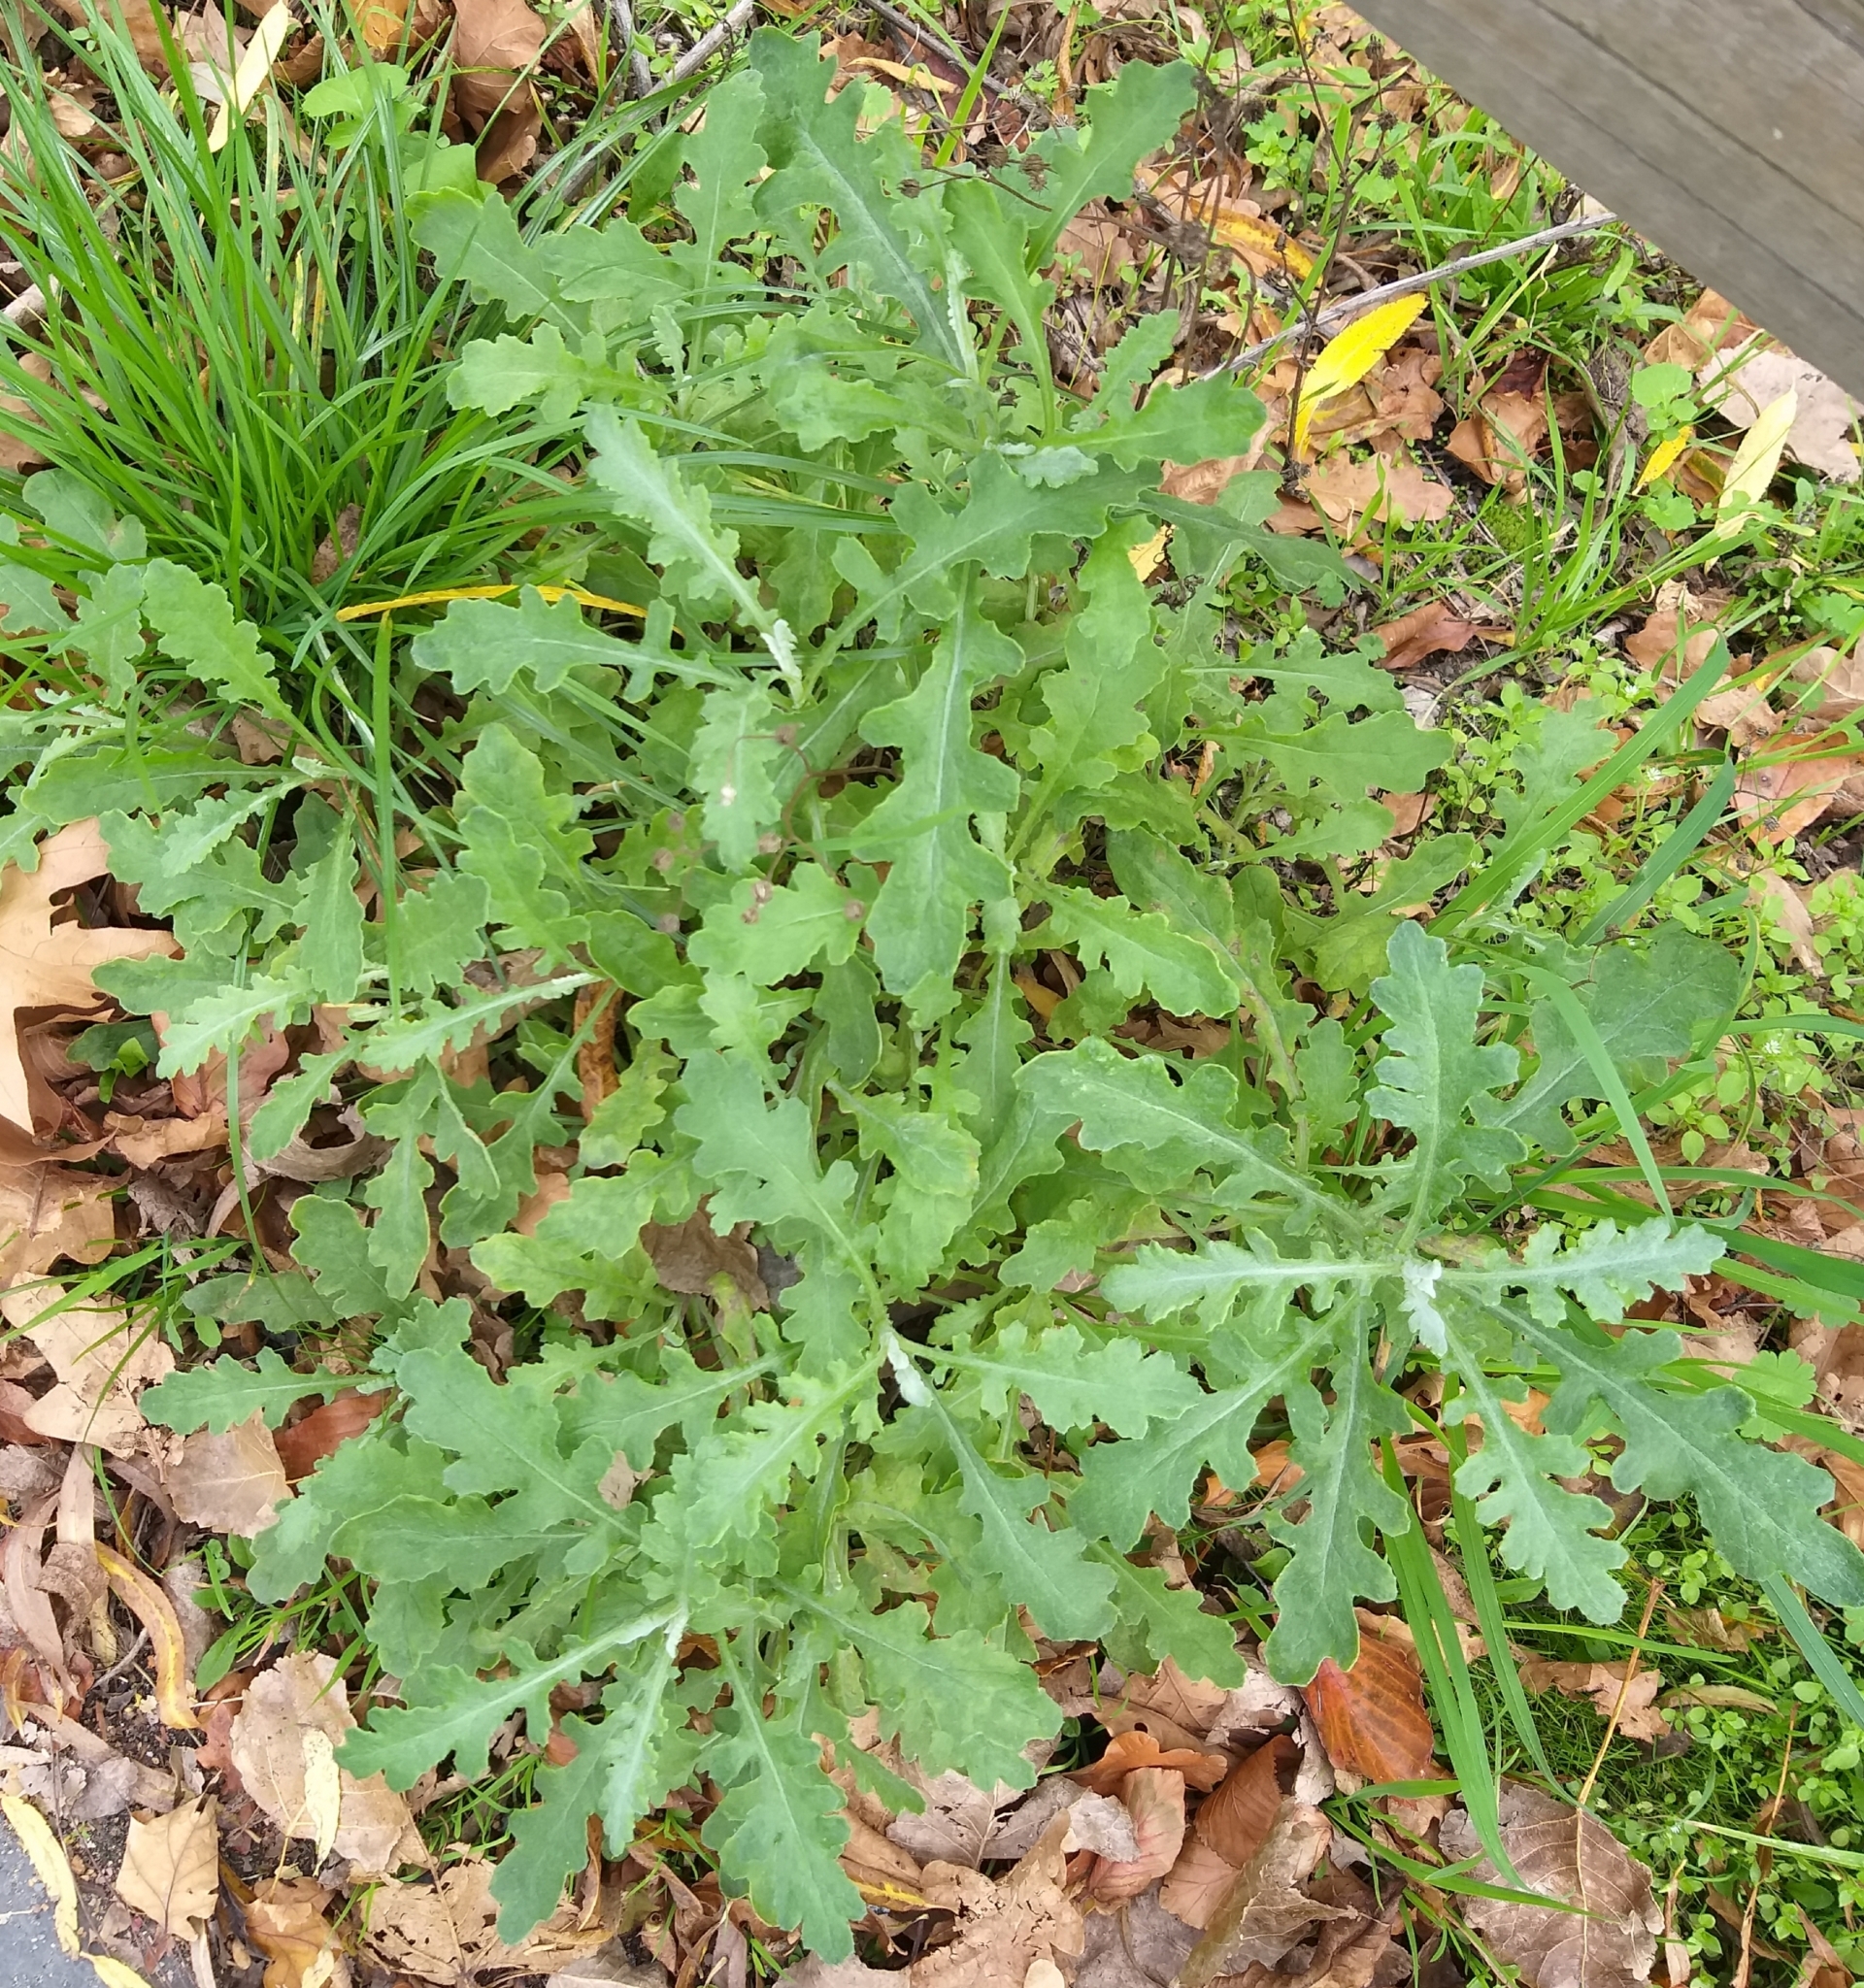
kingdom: Plantae
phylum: Tracheophyta
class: Magnoliopsida
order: Asterales
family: Asteraceae
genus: Senecio
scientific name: Senecio glomeratus
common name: Cutleaf burnweed
